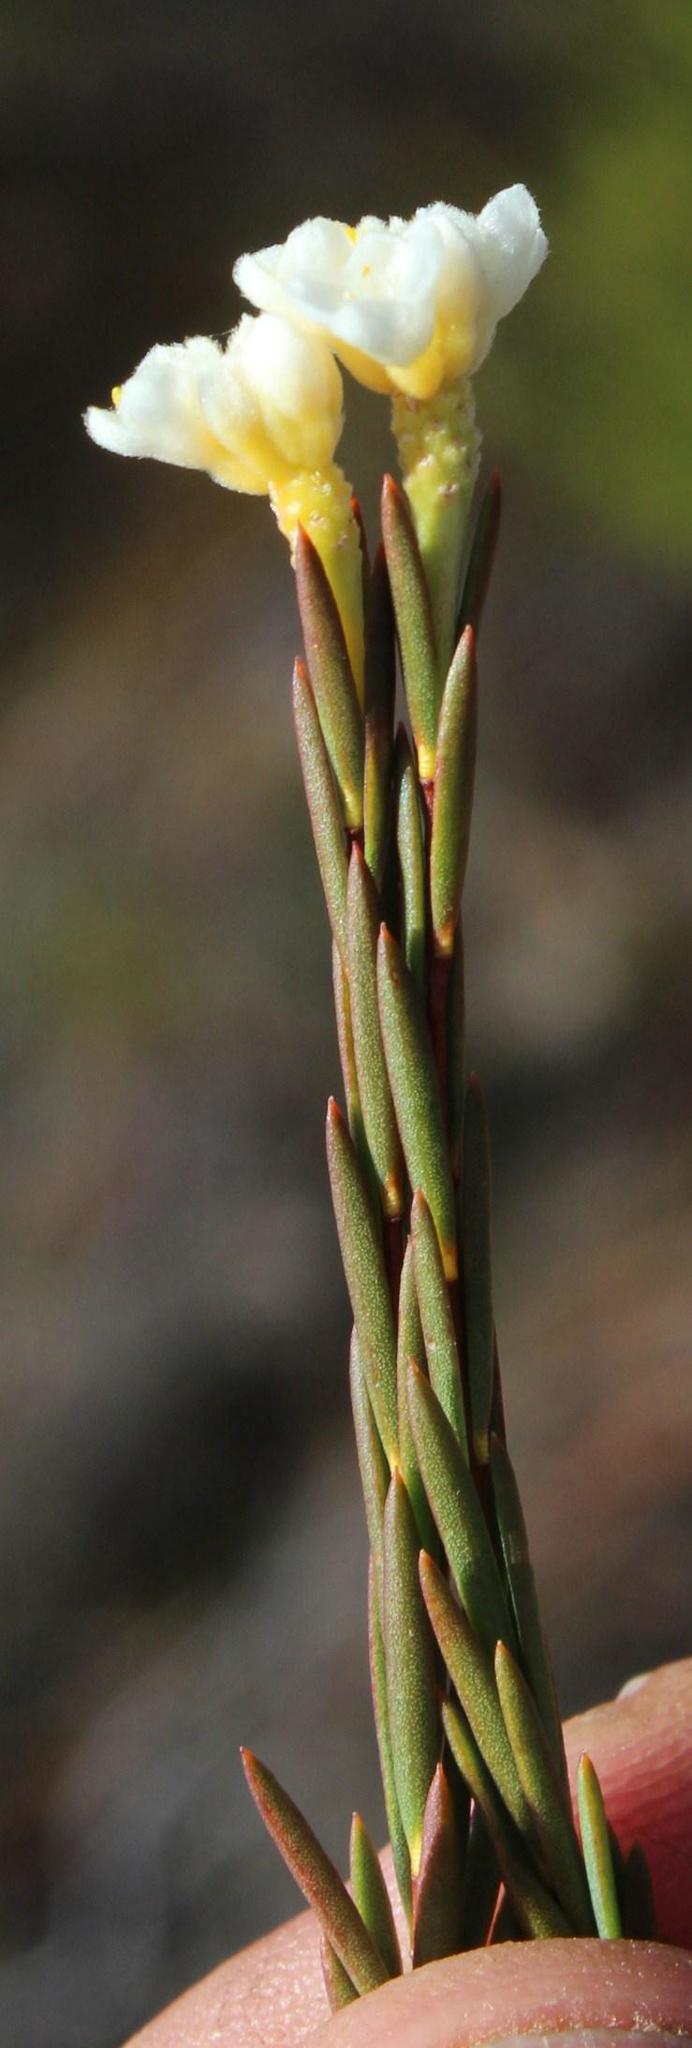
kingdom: Plantae
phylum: Tracheophyta
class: Magnoliopsida
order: Malvales
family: Thymelaeaceae
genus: Lachnaea
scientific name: Lachnaea capitata
